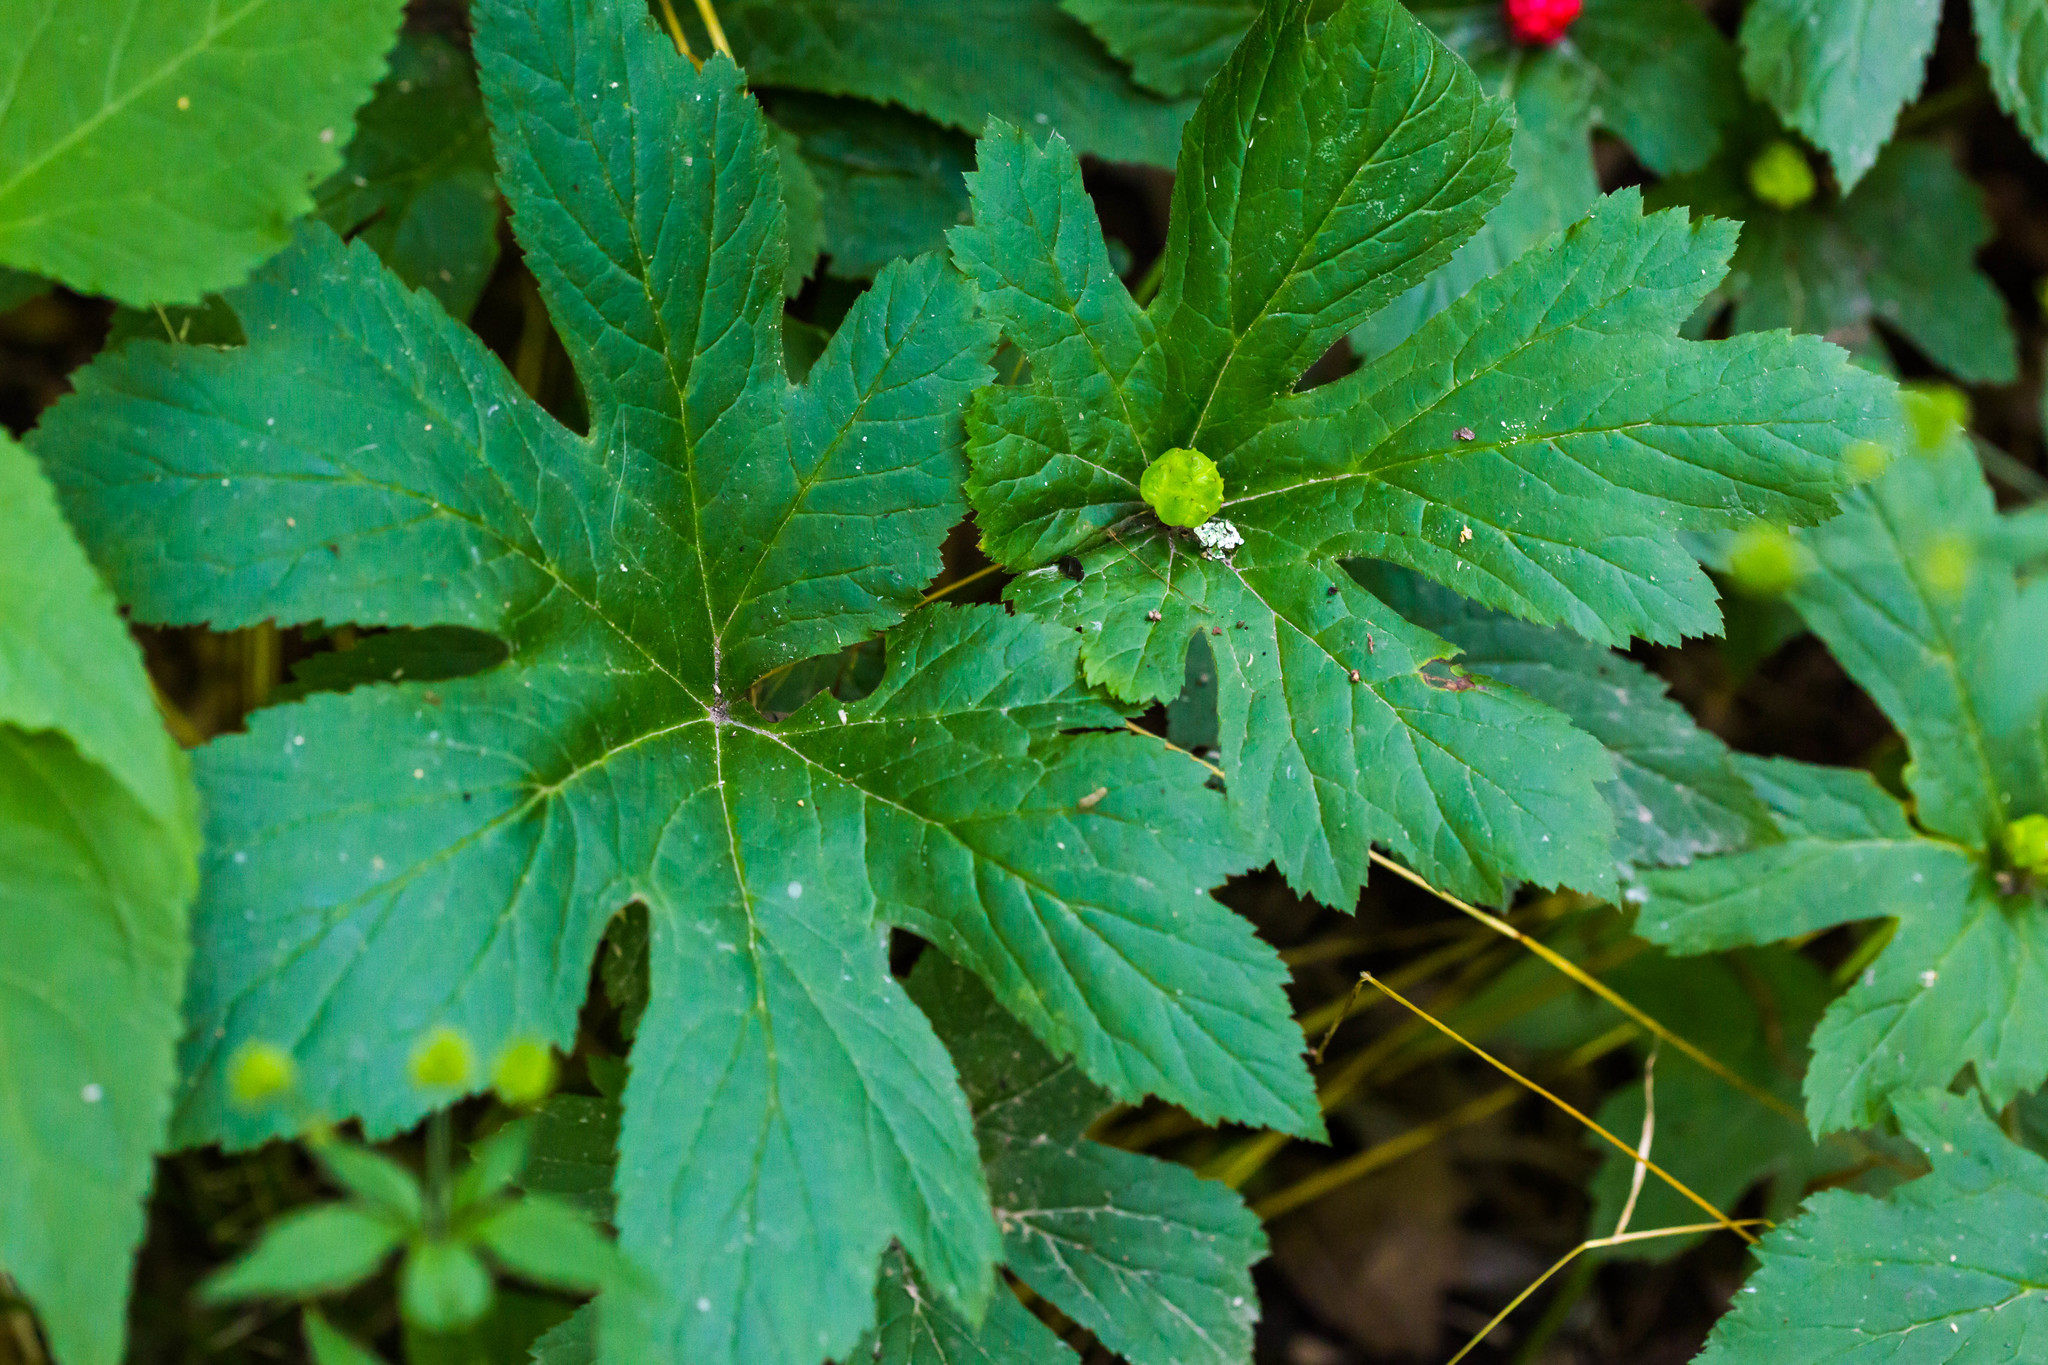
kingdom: Plantae
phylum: Tracheophyta
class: Magnoliopsida
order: Ranunculales
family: Ranunculaceae
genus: Hydrastis
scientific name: Hydrastis canadensis
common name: Goldenseal
